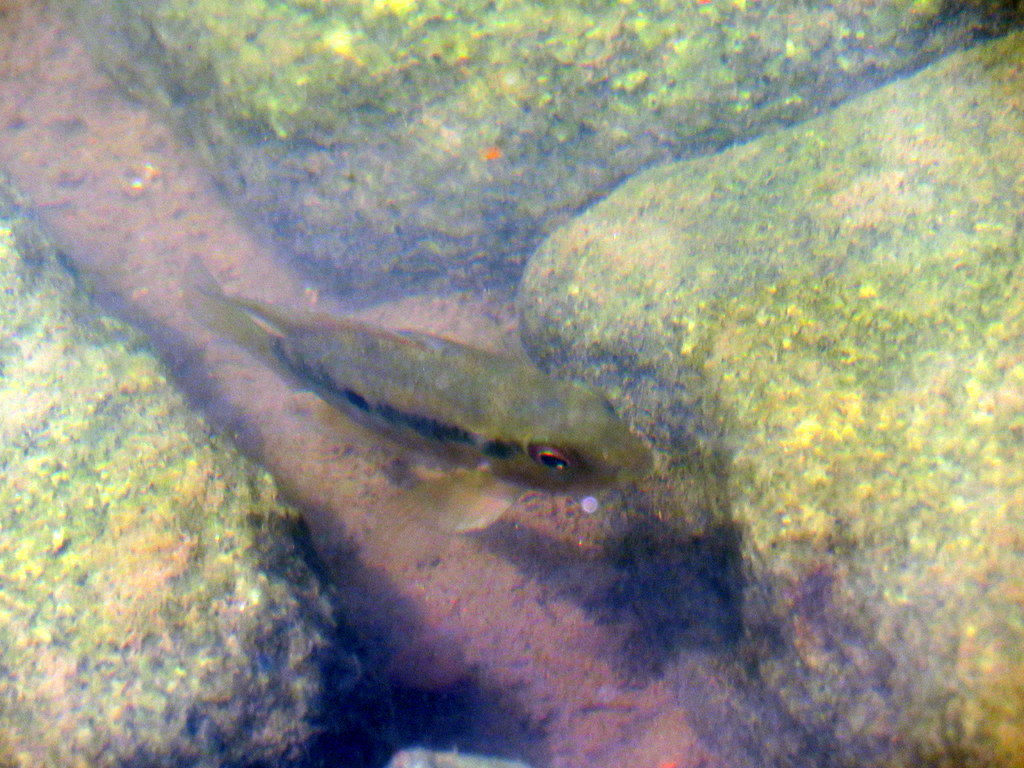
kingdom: Animalia
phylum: Chordata
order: Perciformes
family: Cichlidae
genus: Australoheros
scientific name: Australoheros facetus
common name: Chameleon cichlid
